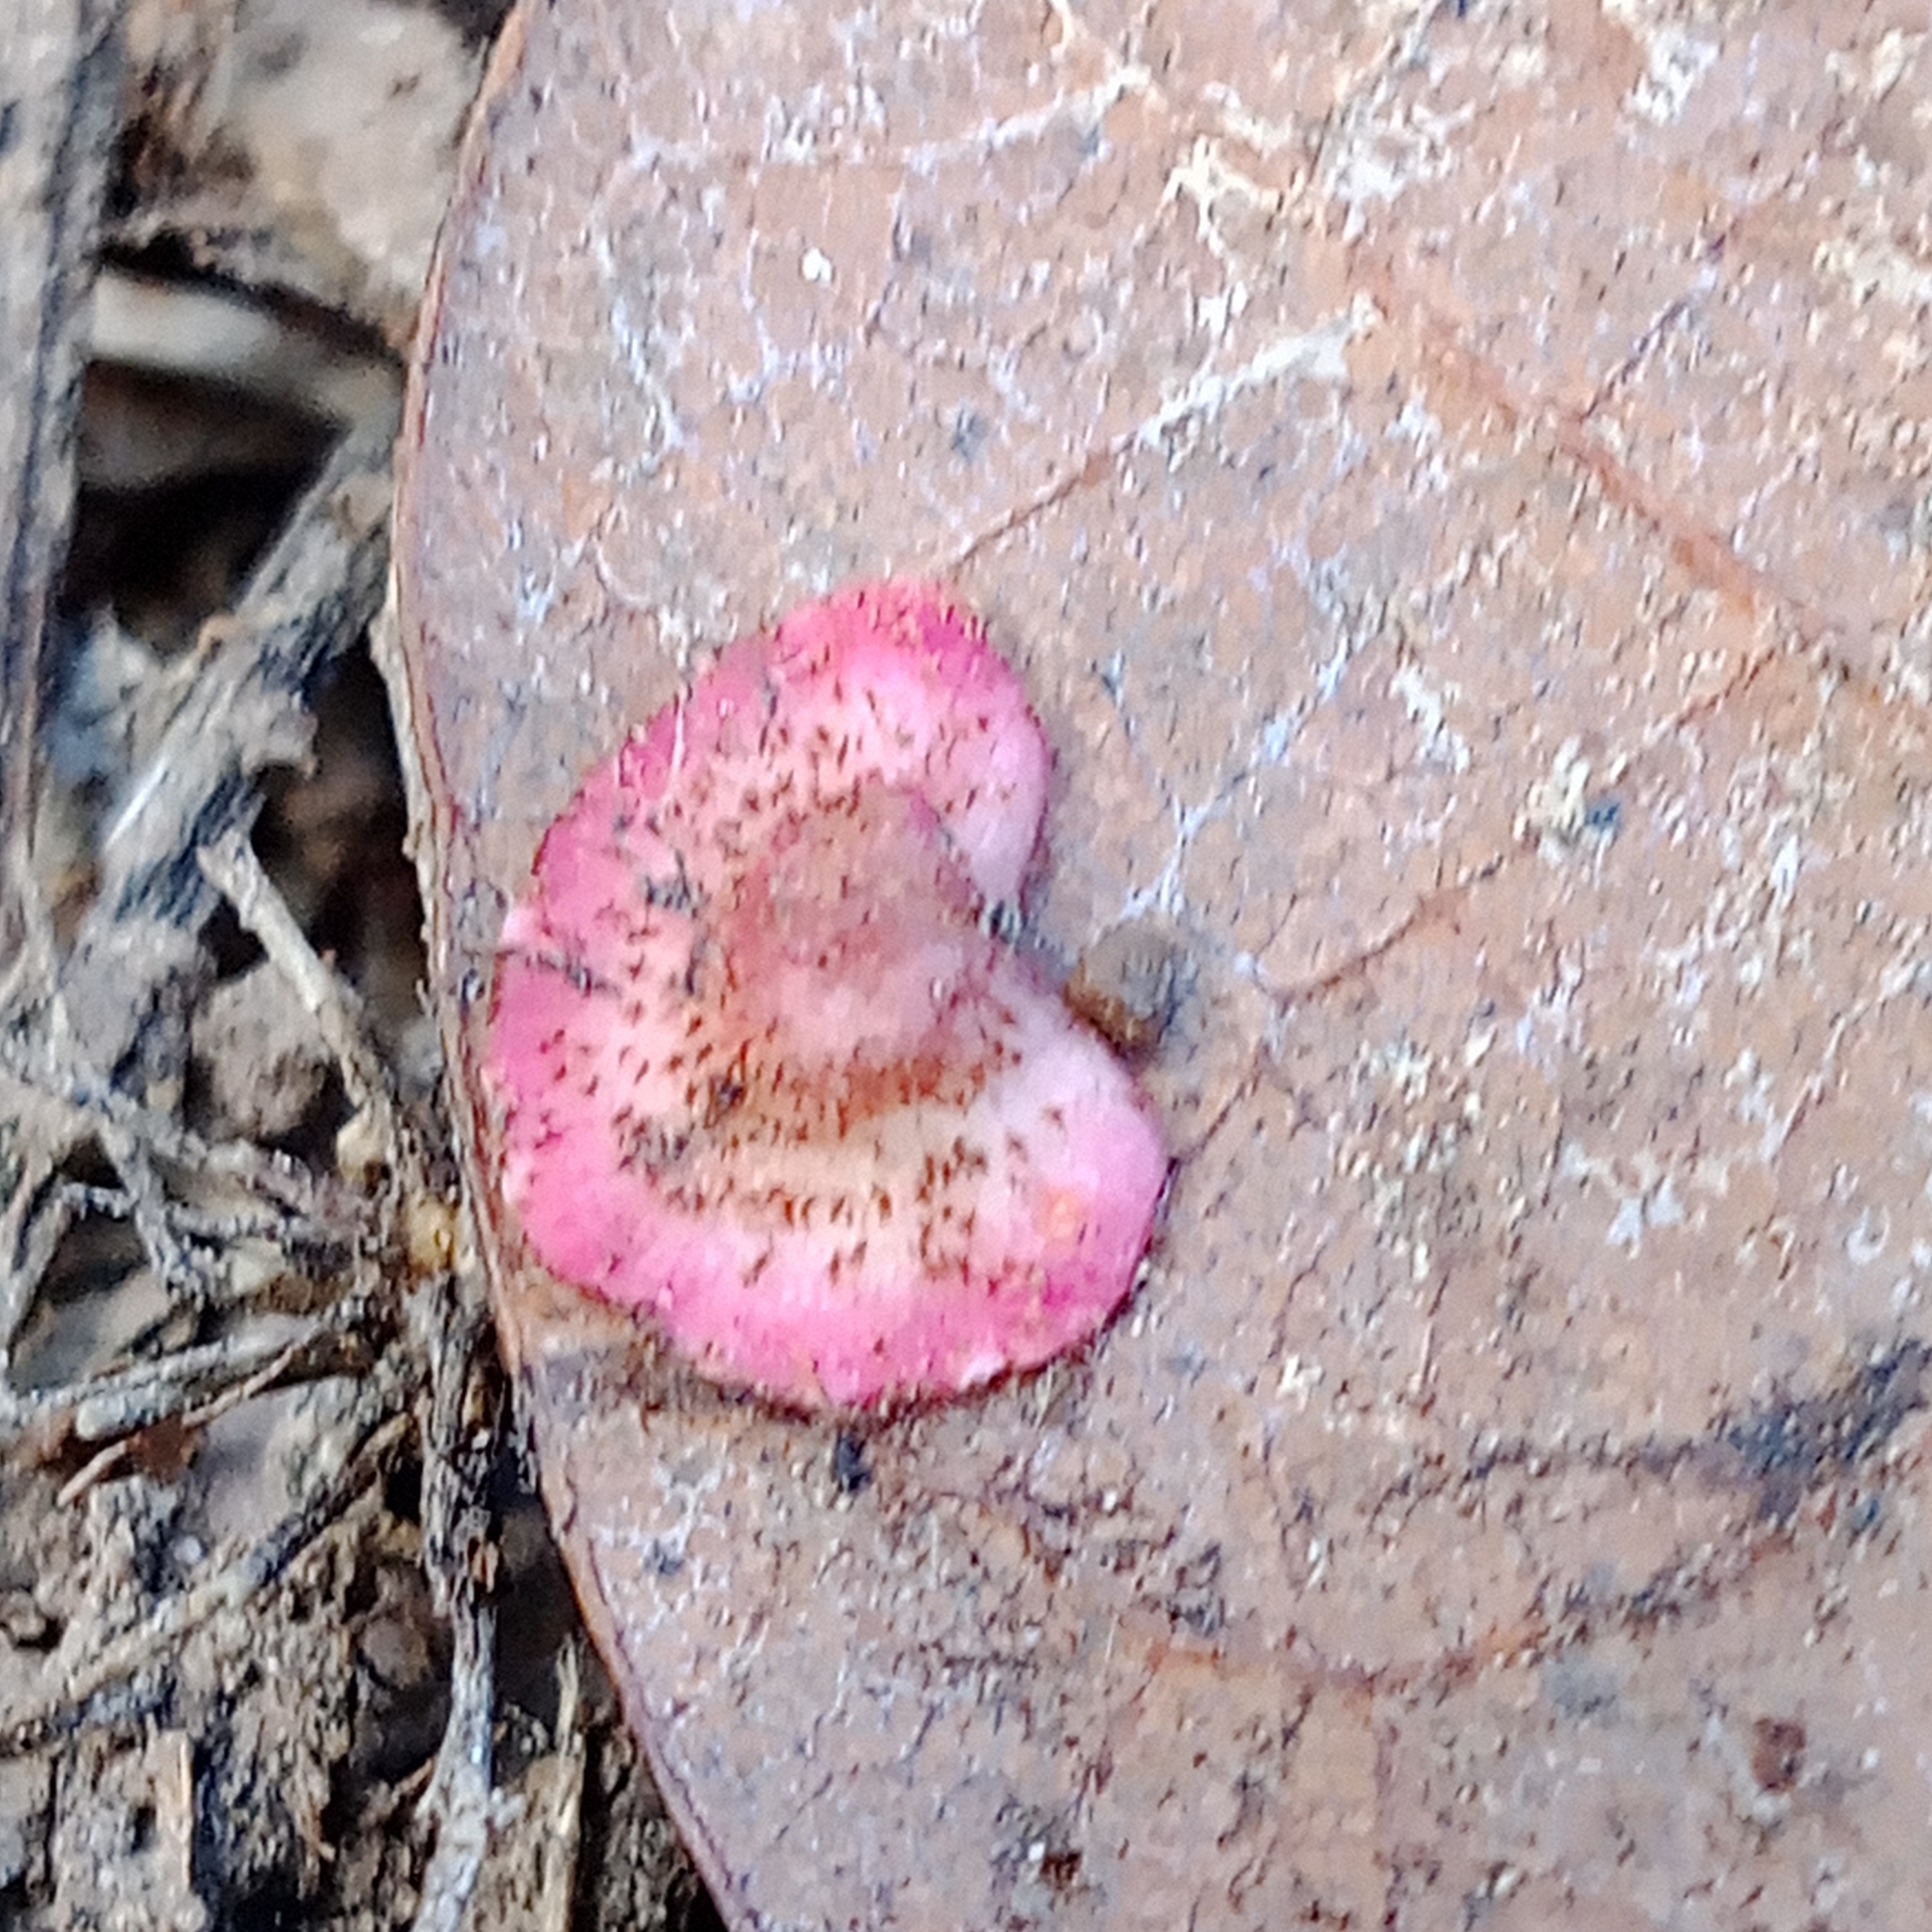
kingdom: Animalia
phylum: Arthropoda
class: Insecta
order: Hymenoptera
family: Cynipidae
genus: Neuroterus
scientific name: Neuroterus quercusbaccarum
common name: Common spangle gall
